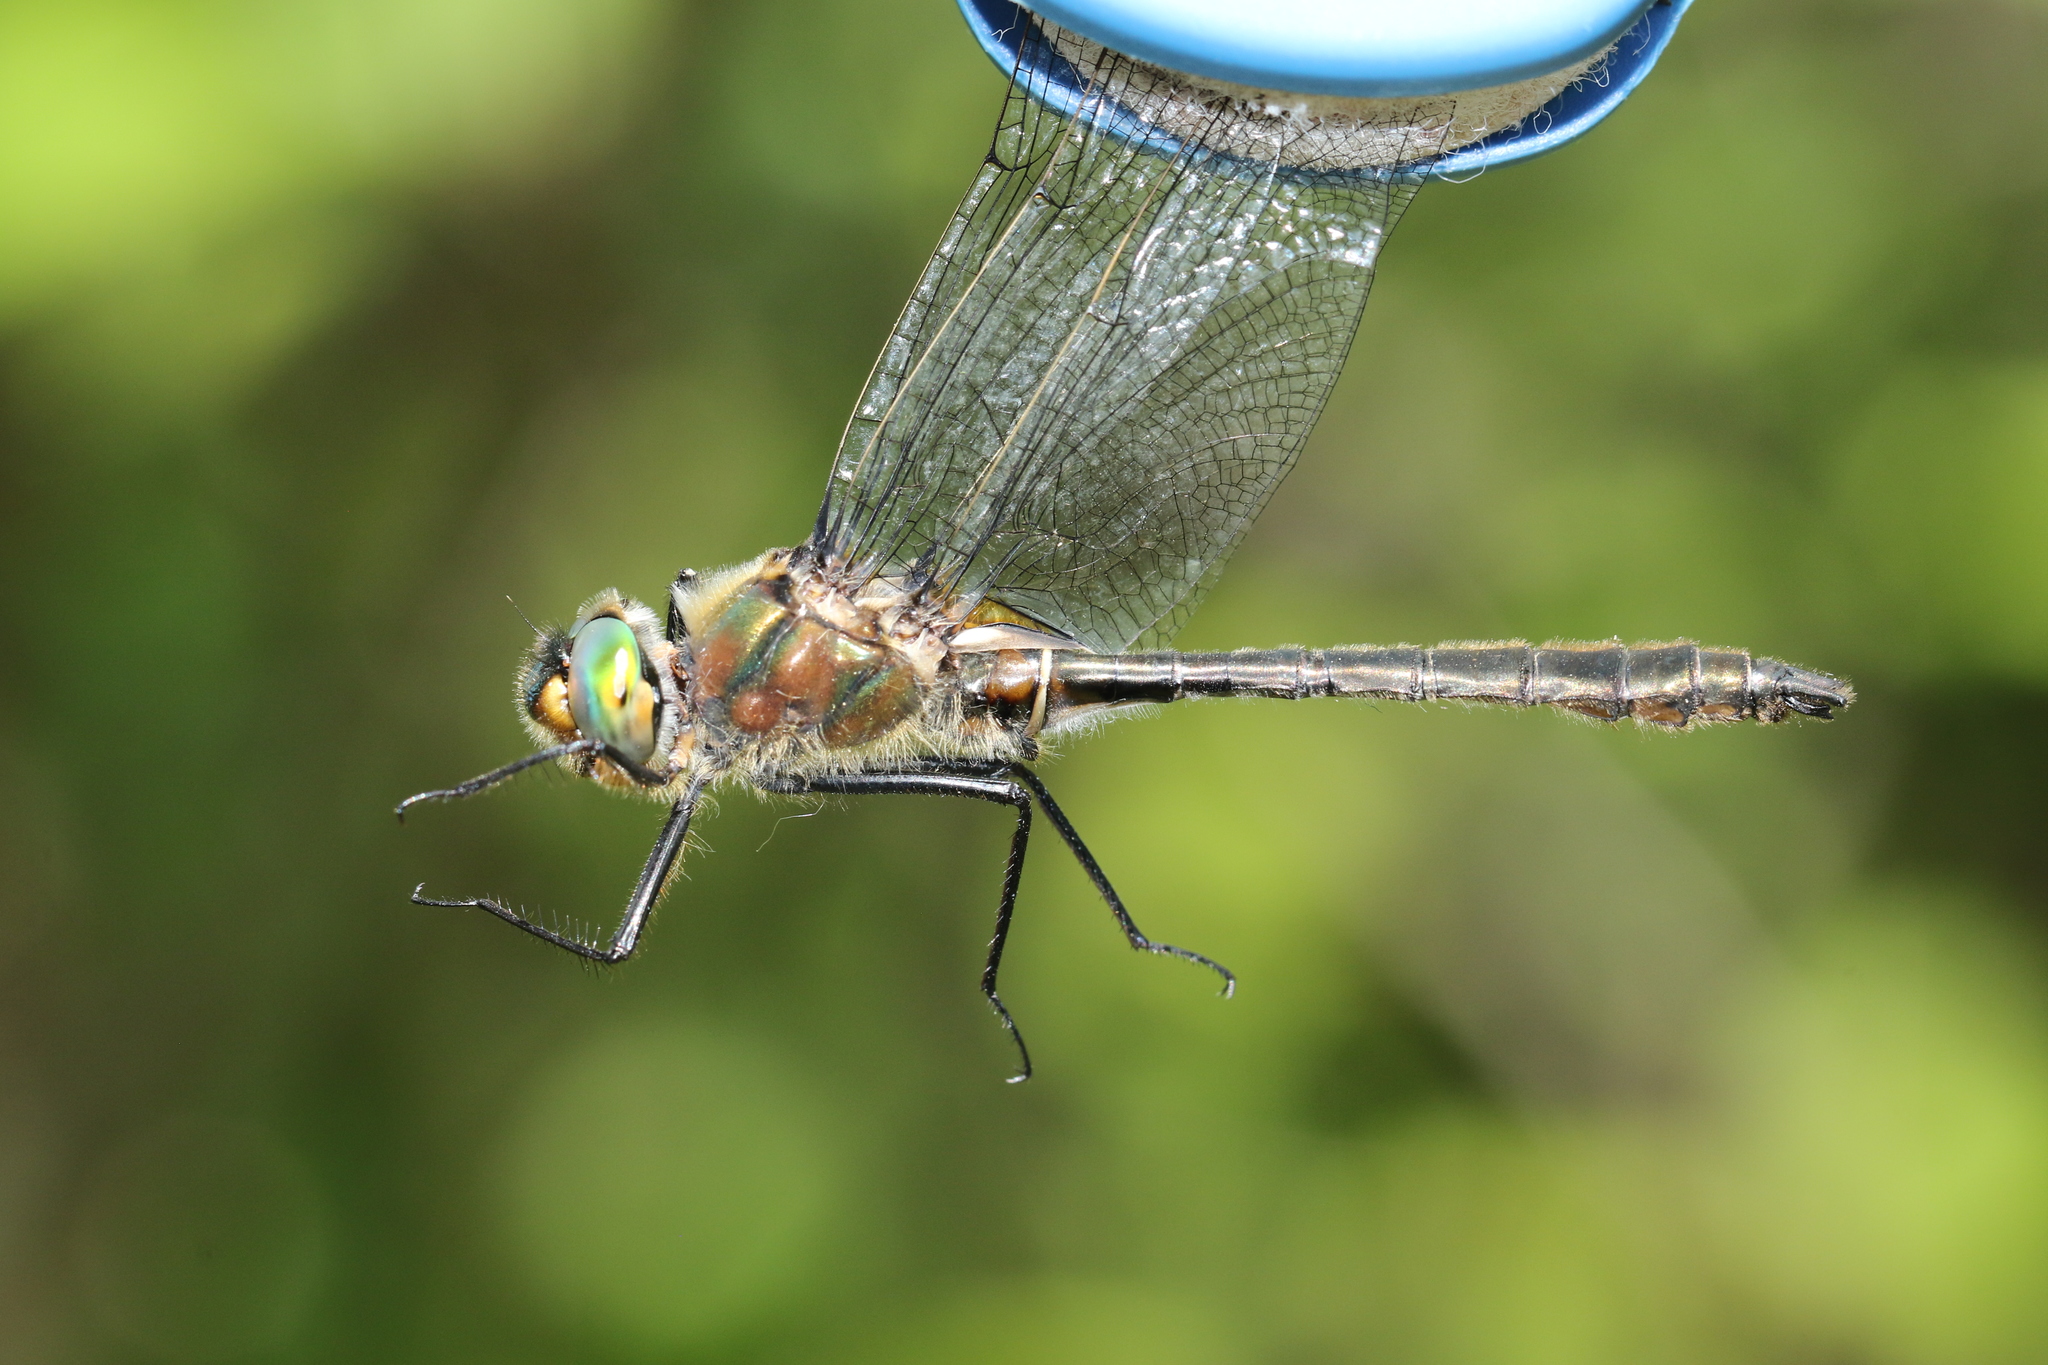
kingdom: Animalia
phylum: Arthropoda
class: Insecta
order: Odonata
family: Corduliidae
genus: Cordulia
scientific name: Cordulia shurtleffii
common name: American emerald
